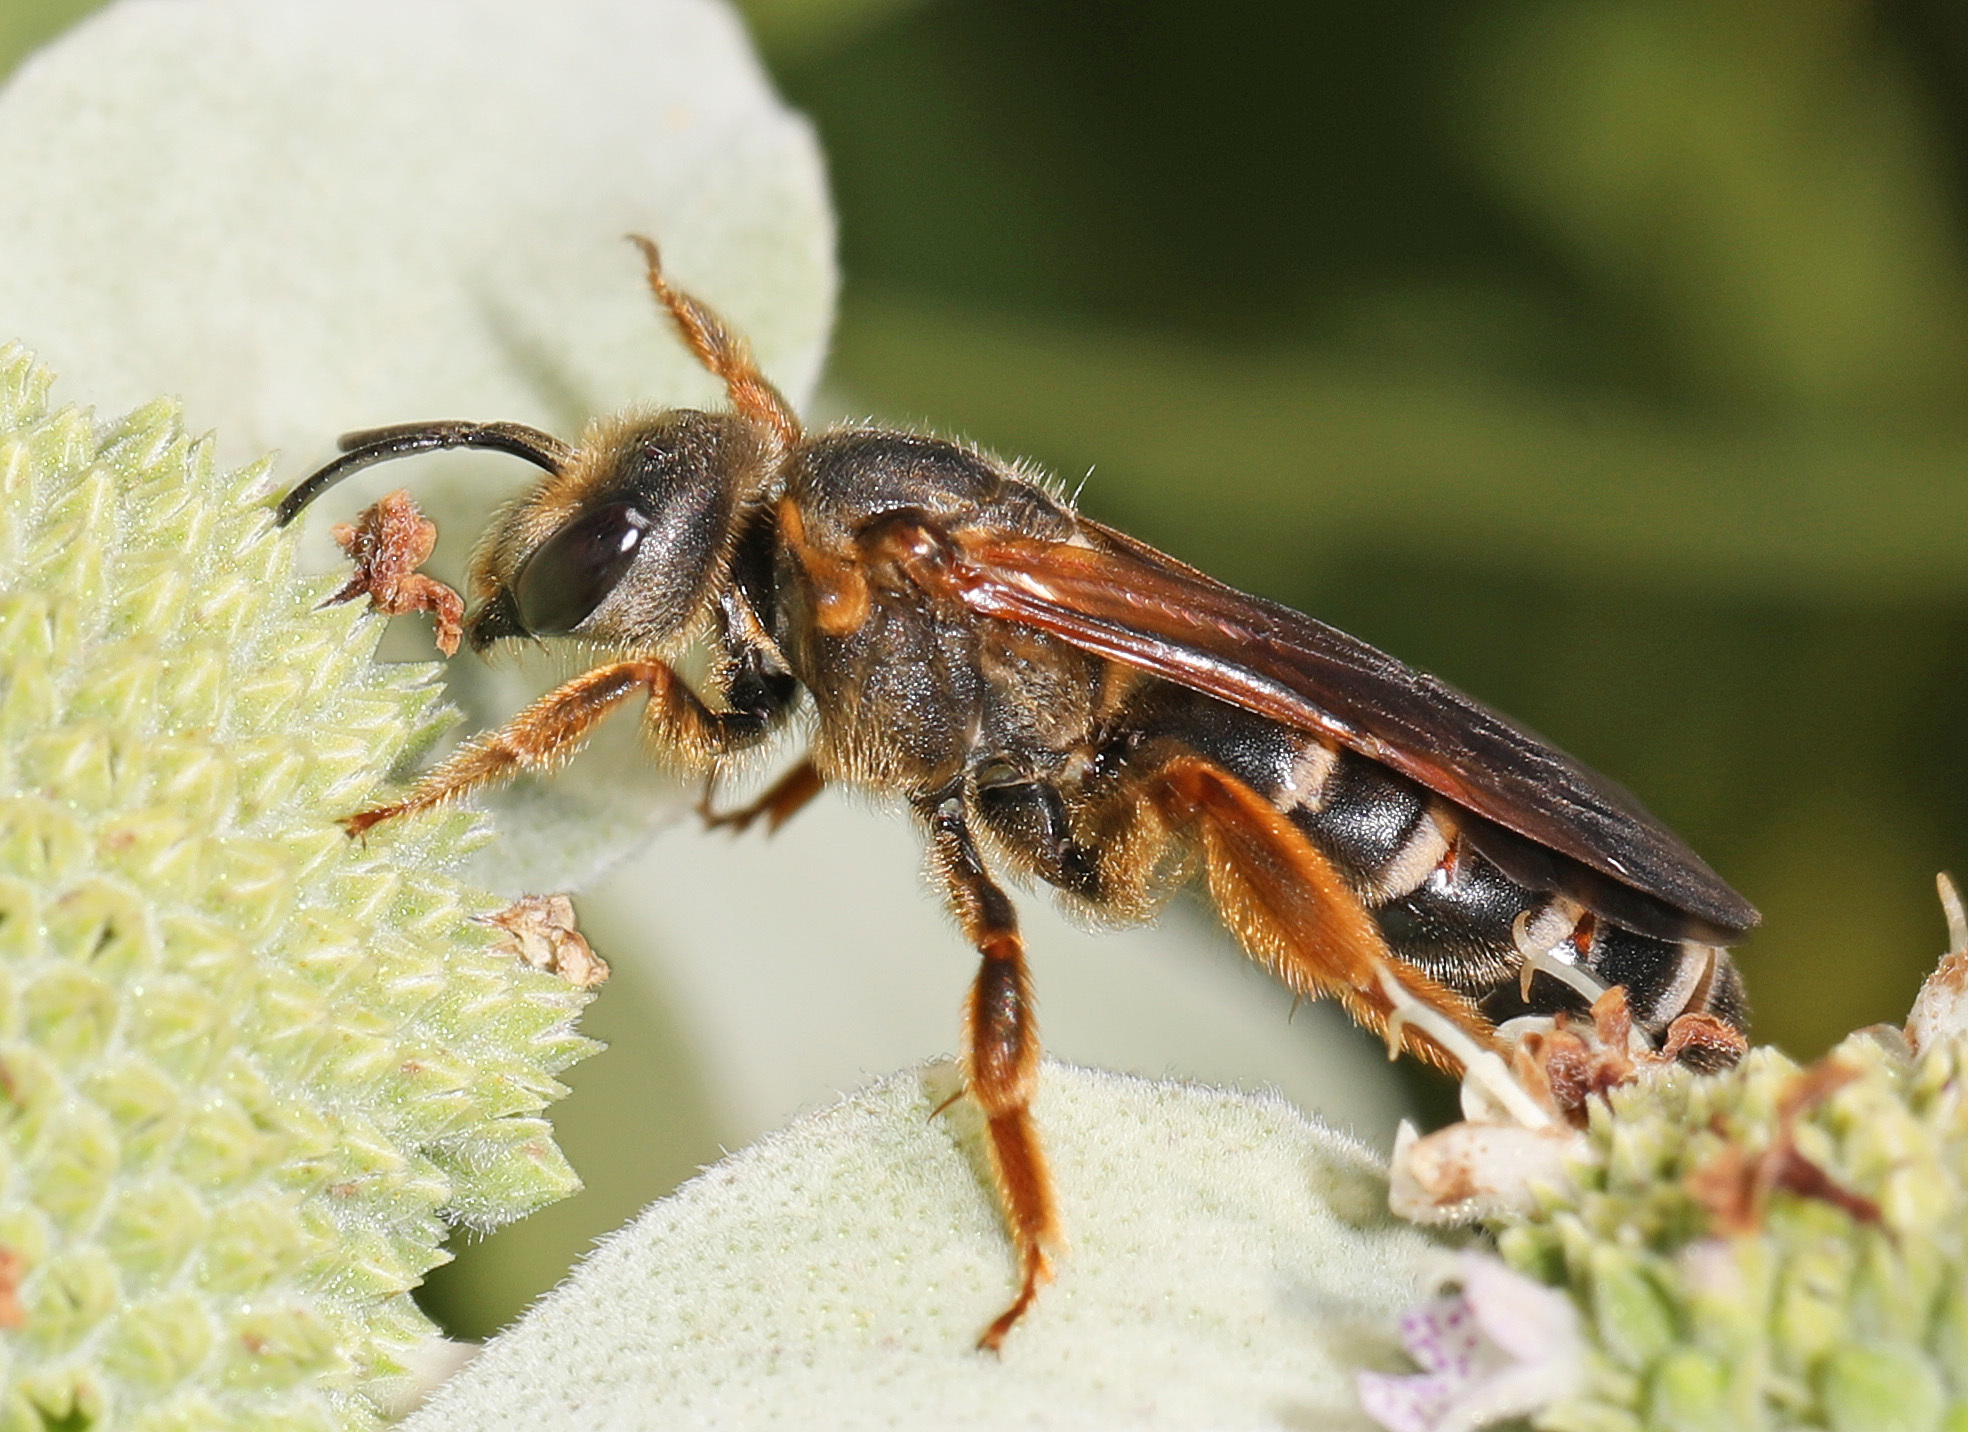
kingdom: Animalia
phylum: Arthropoda
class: Insecta
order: Hymenoptera
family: Halictidae
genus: Halictus
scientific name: Halictus parallelus
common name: Parallel-striped sweat bee
